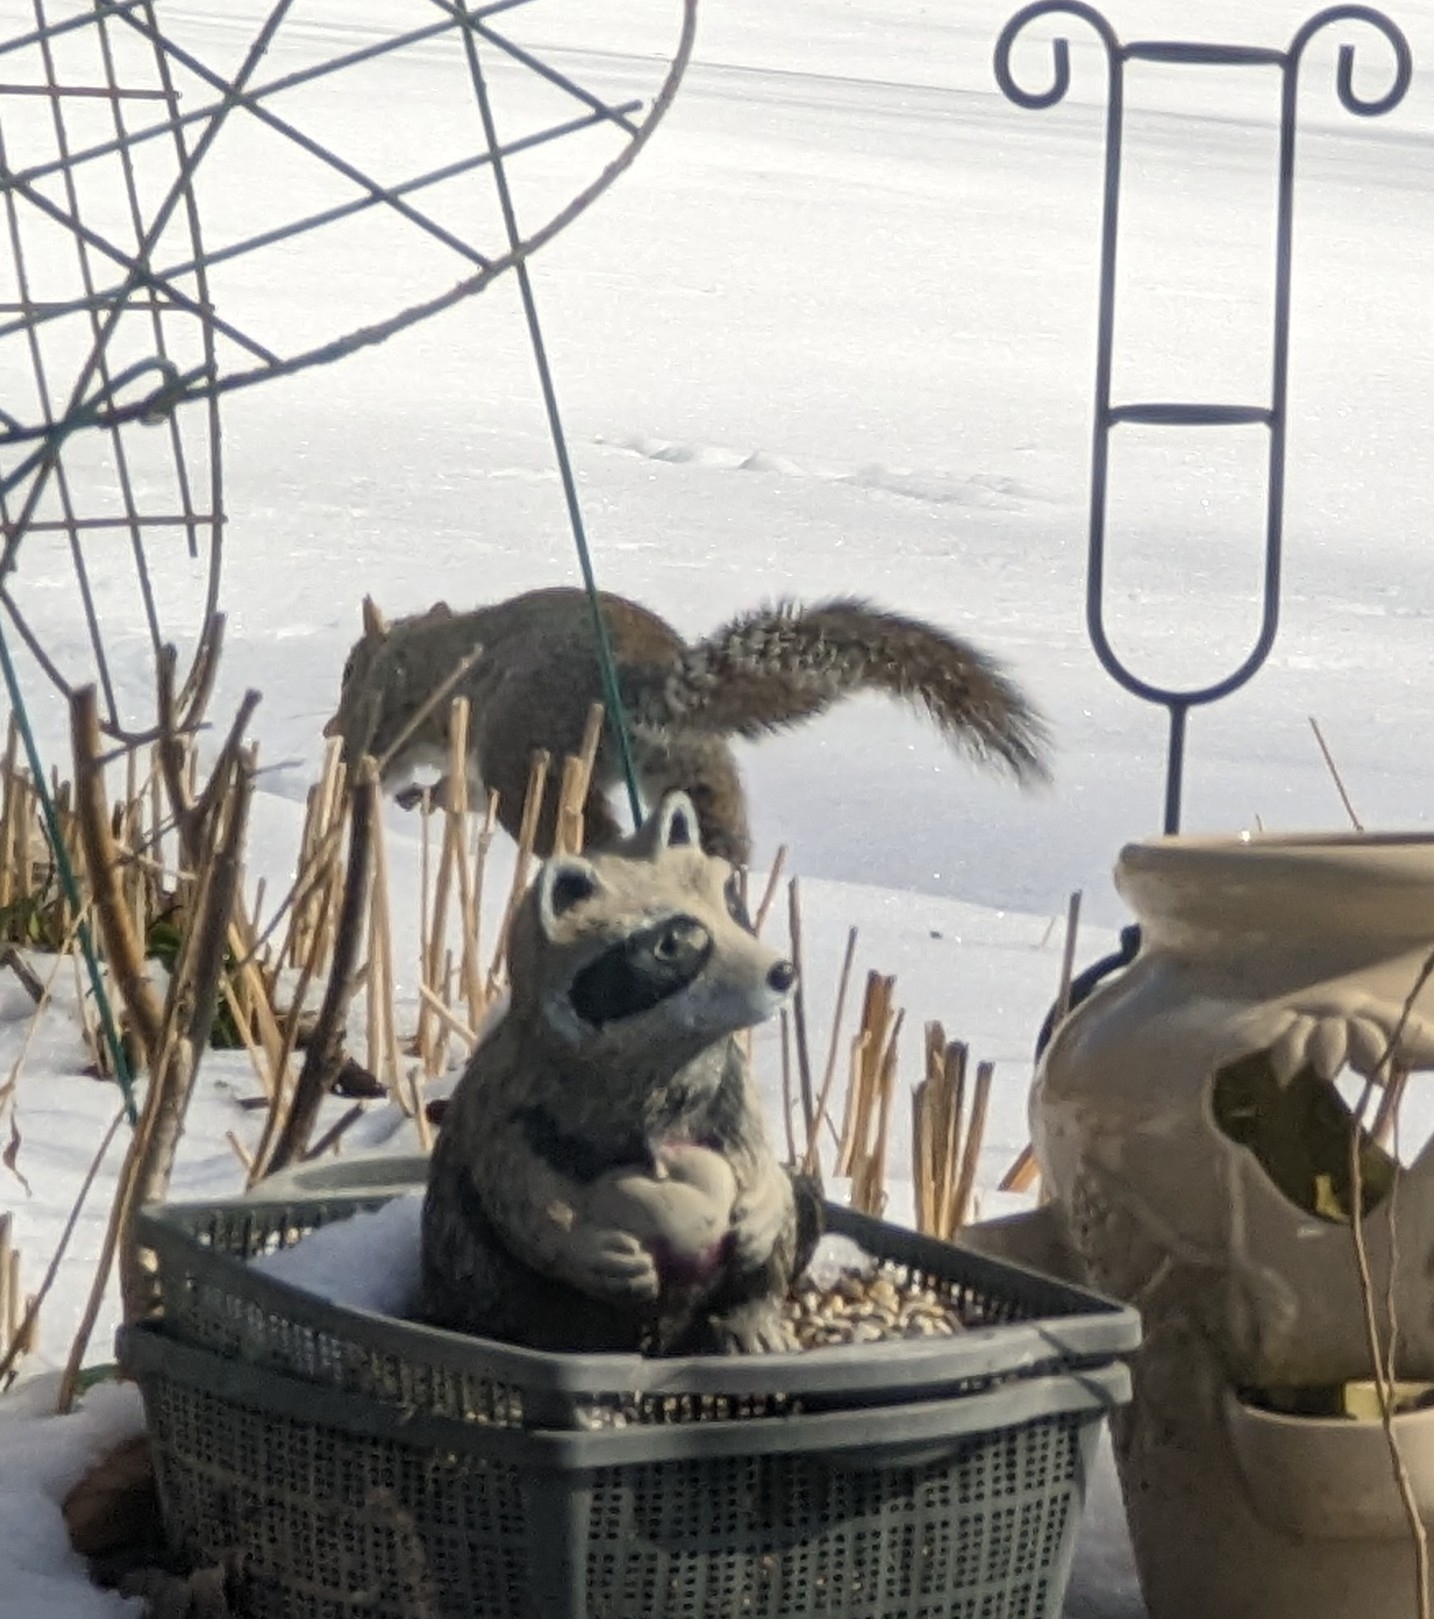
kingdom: Animalia
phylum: Chordata
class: Mammalia
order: Rodentia
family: Sciuridae
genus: Sciurus
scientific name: Sciurus carolinensis
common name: Eastern gray squirrel
